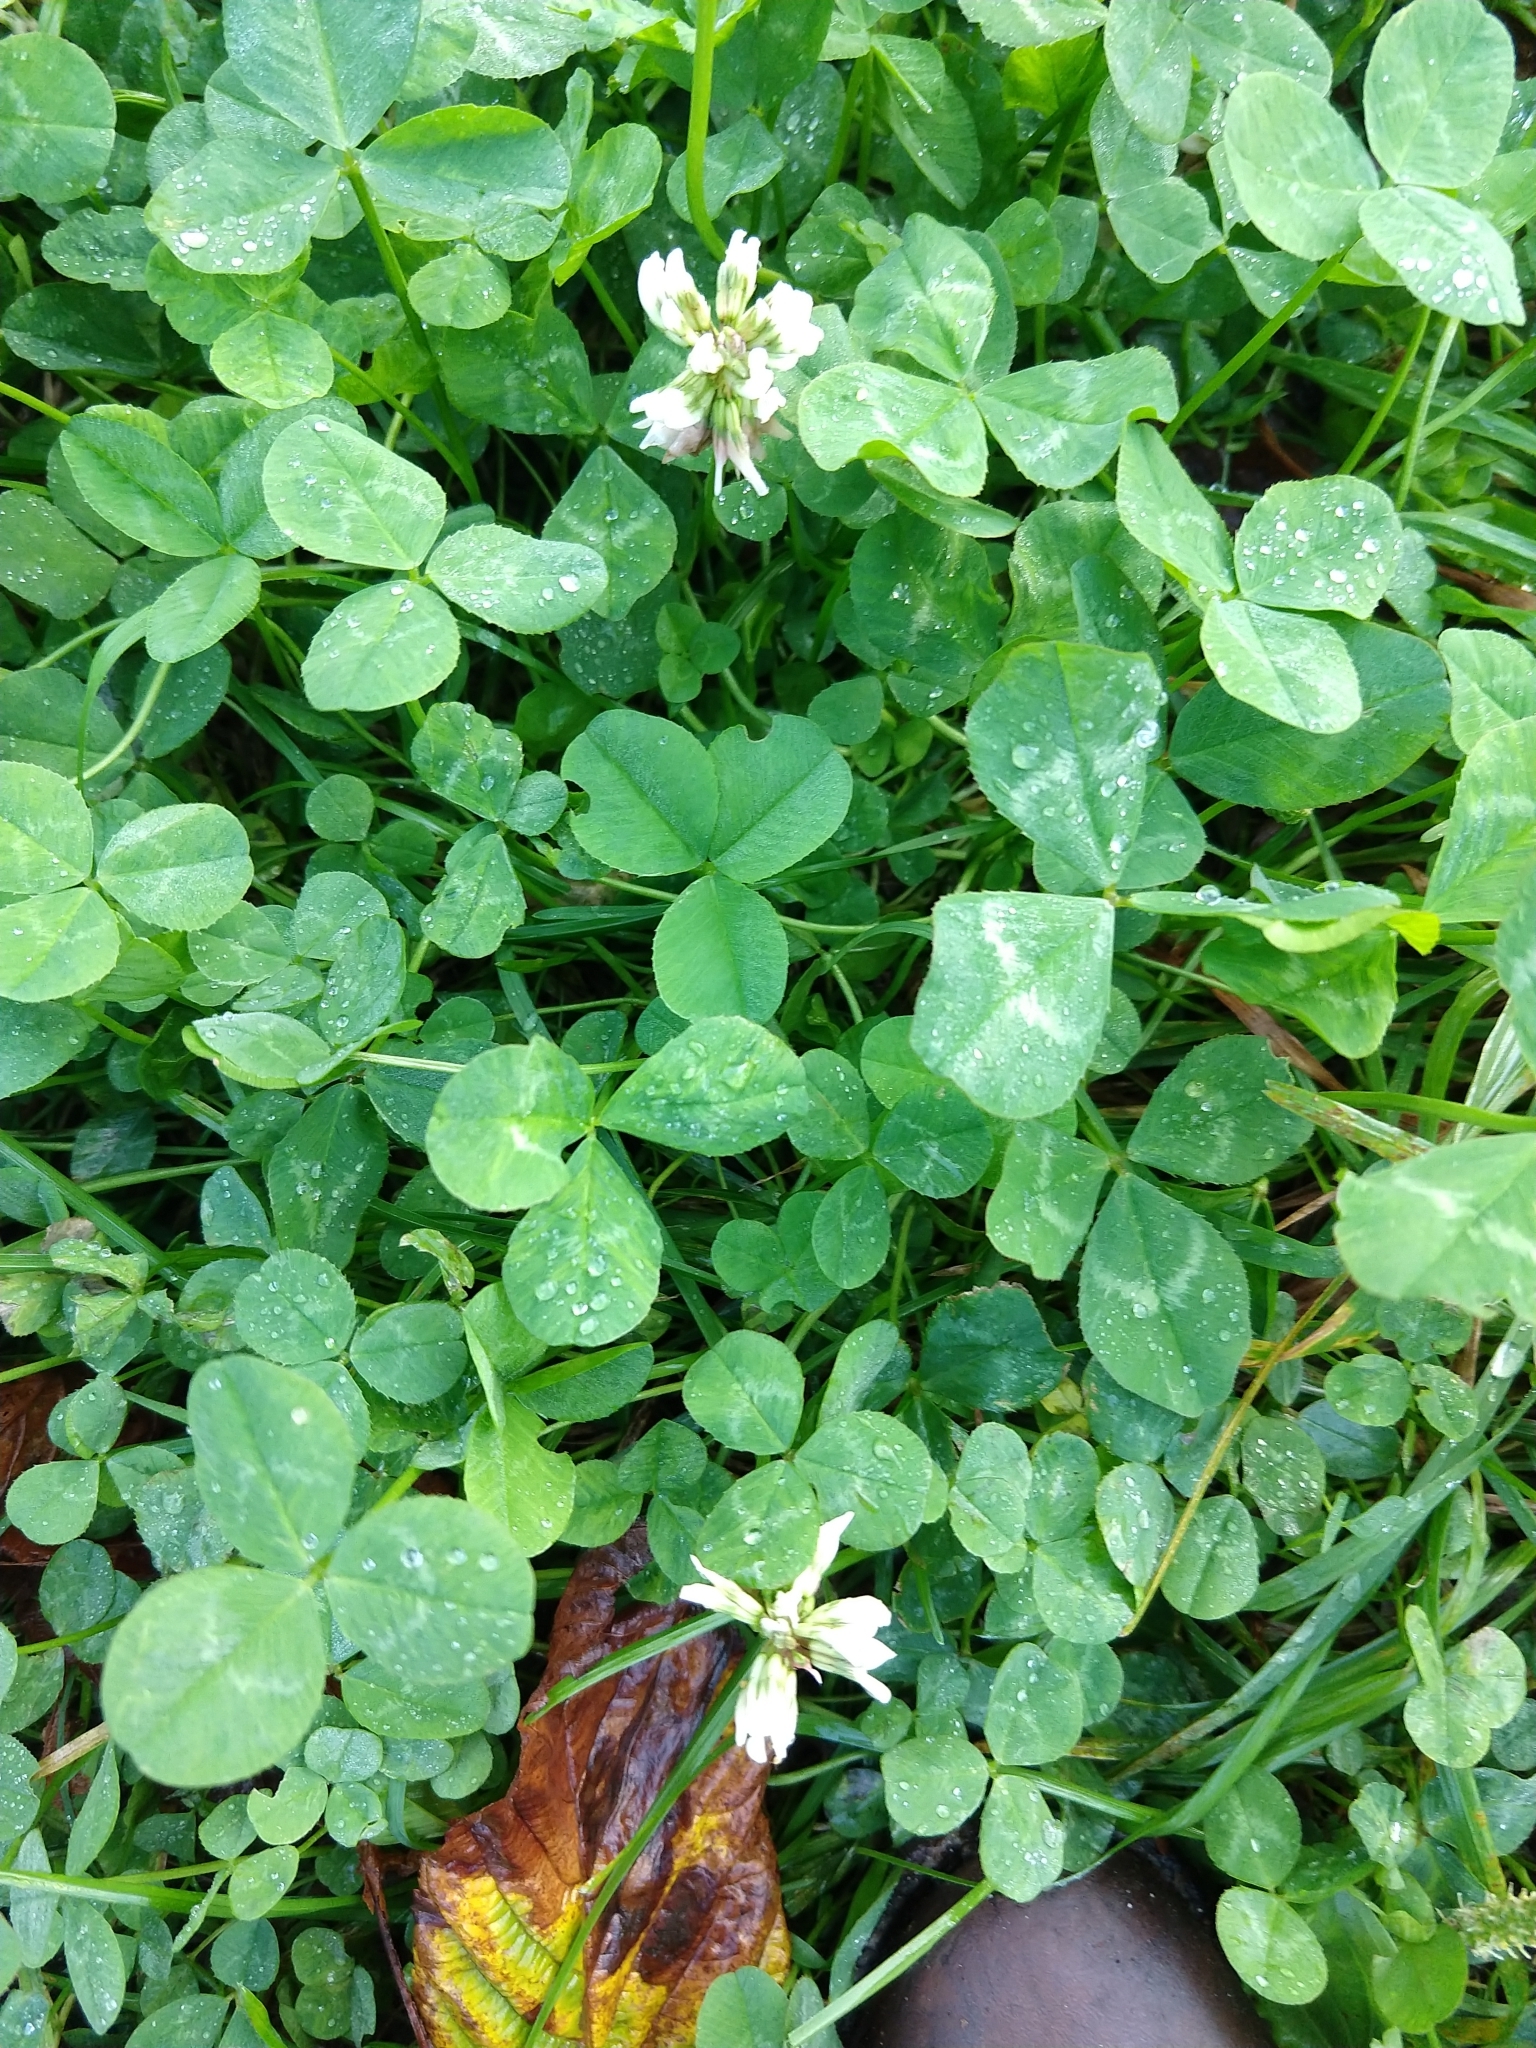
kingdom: Plantae
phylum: Tracheophyta
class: Magnoliopsida
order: Fabales
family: Fabaceae
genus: Trifolium
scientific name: Trifolium repens
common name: White clover
